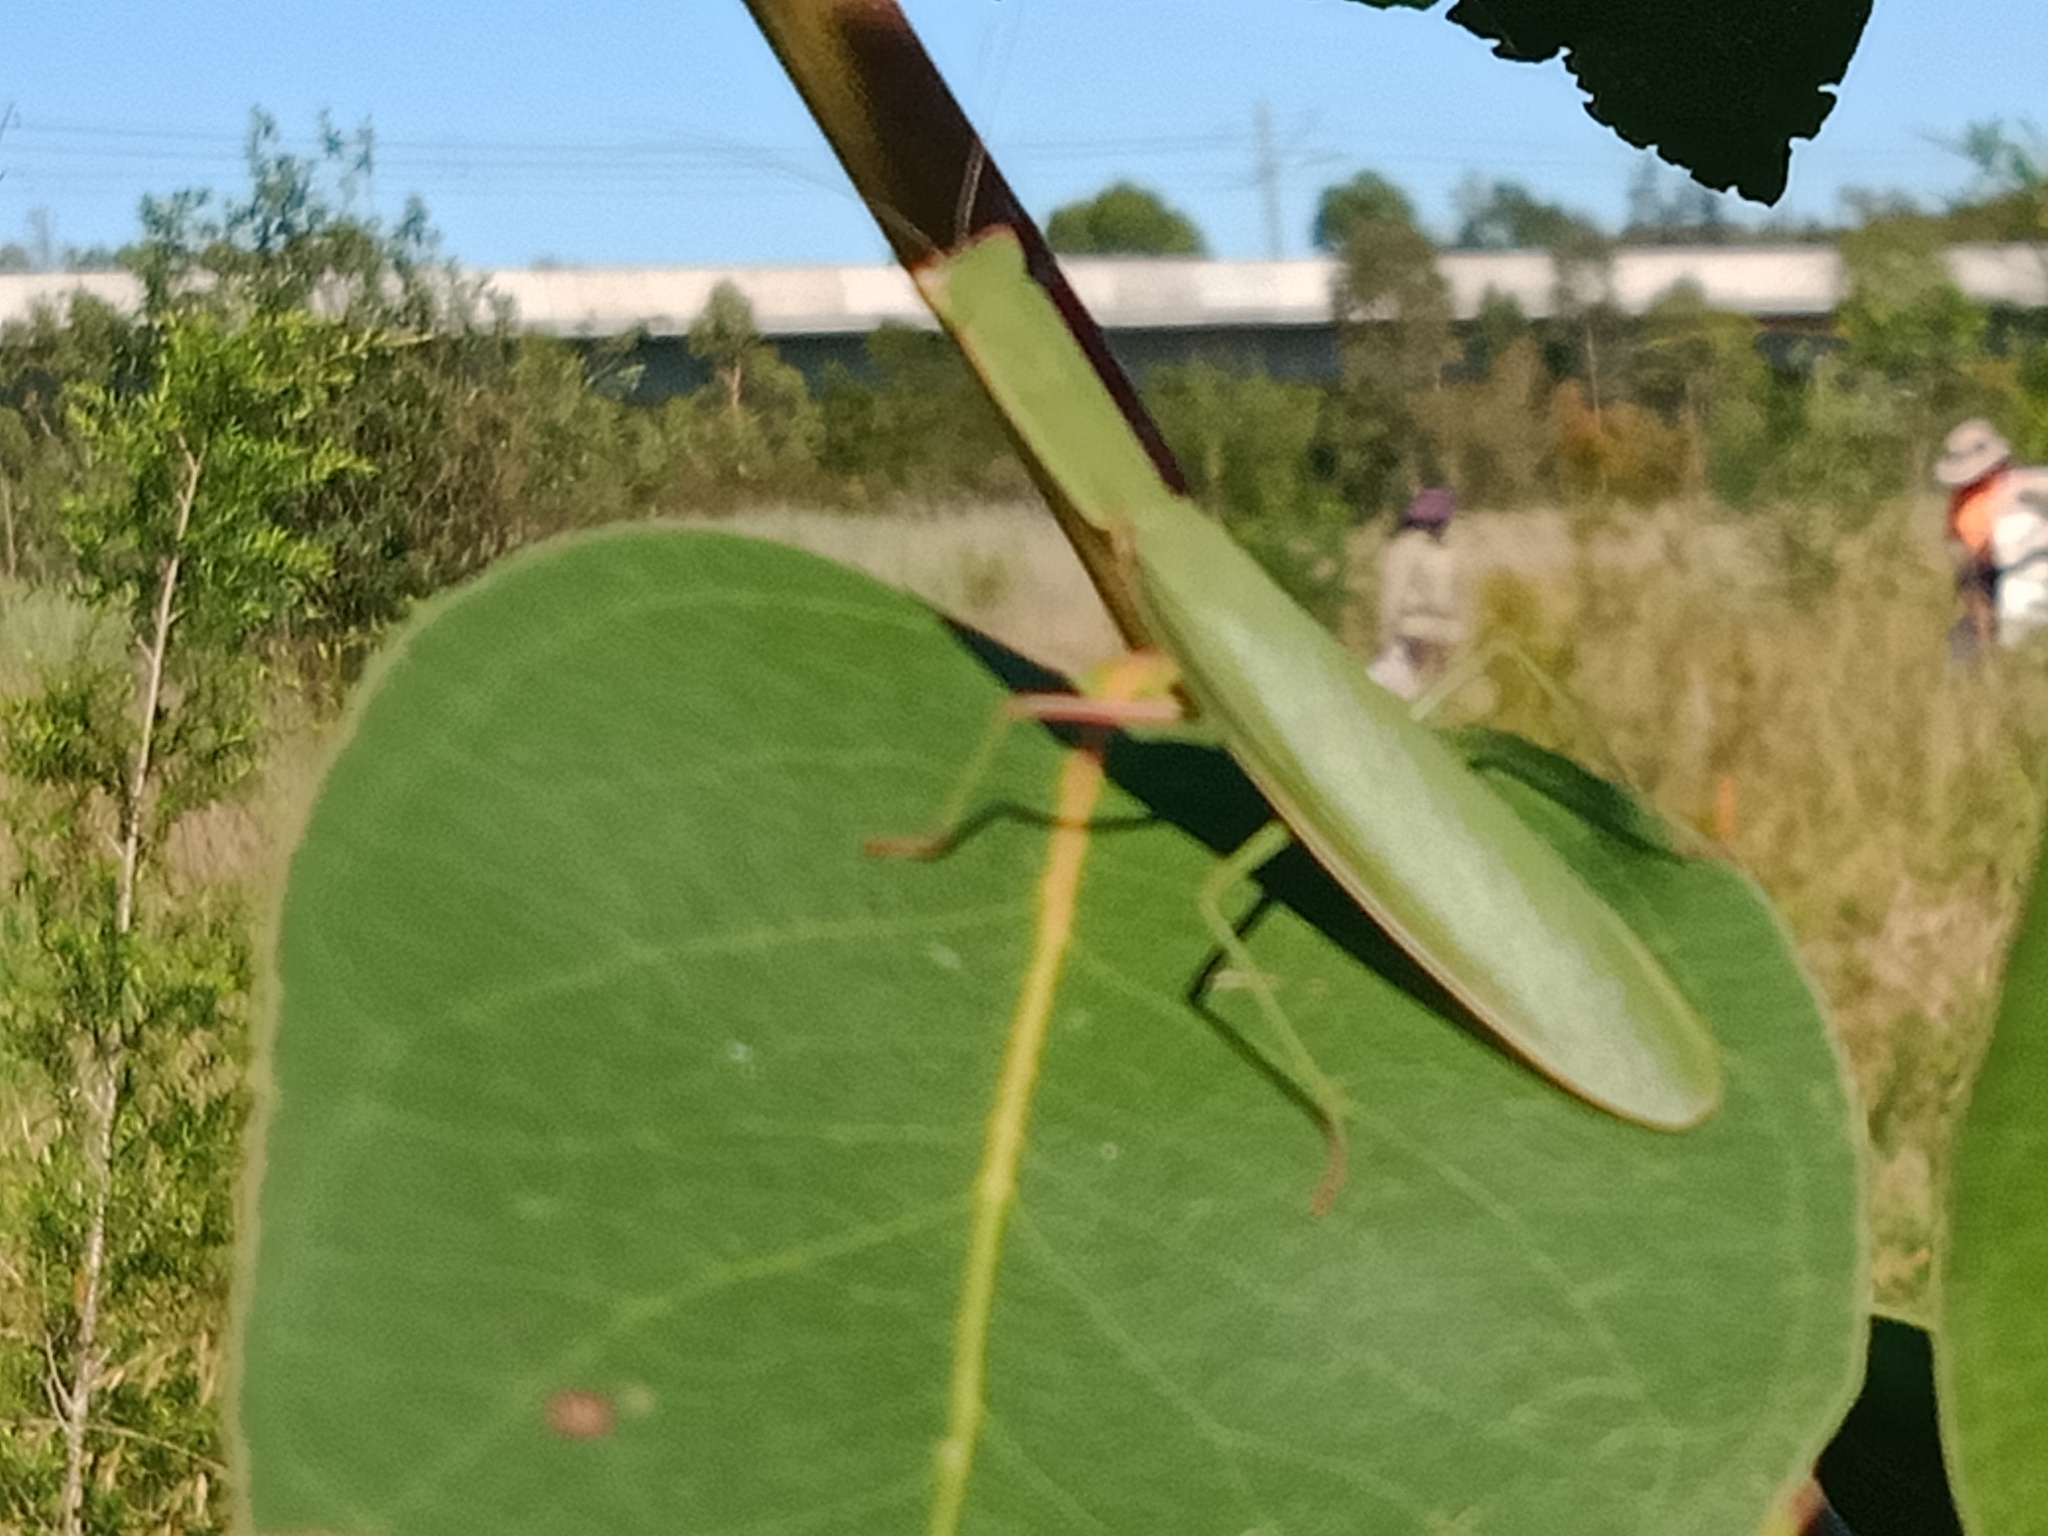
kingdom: Animalia
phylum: Arthropoda
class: Insecta
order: Mantodea
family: Mantidae
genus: Orthodera
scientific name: Orthodera ministralis
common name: Mantis
